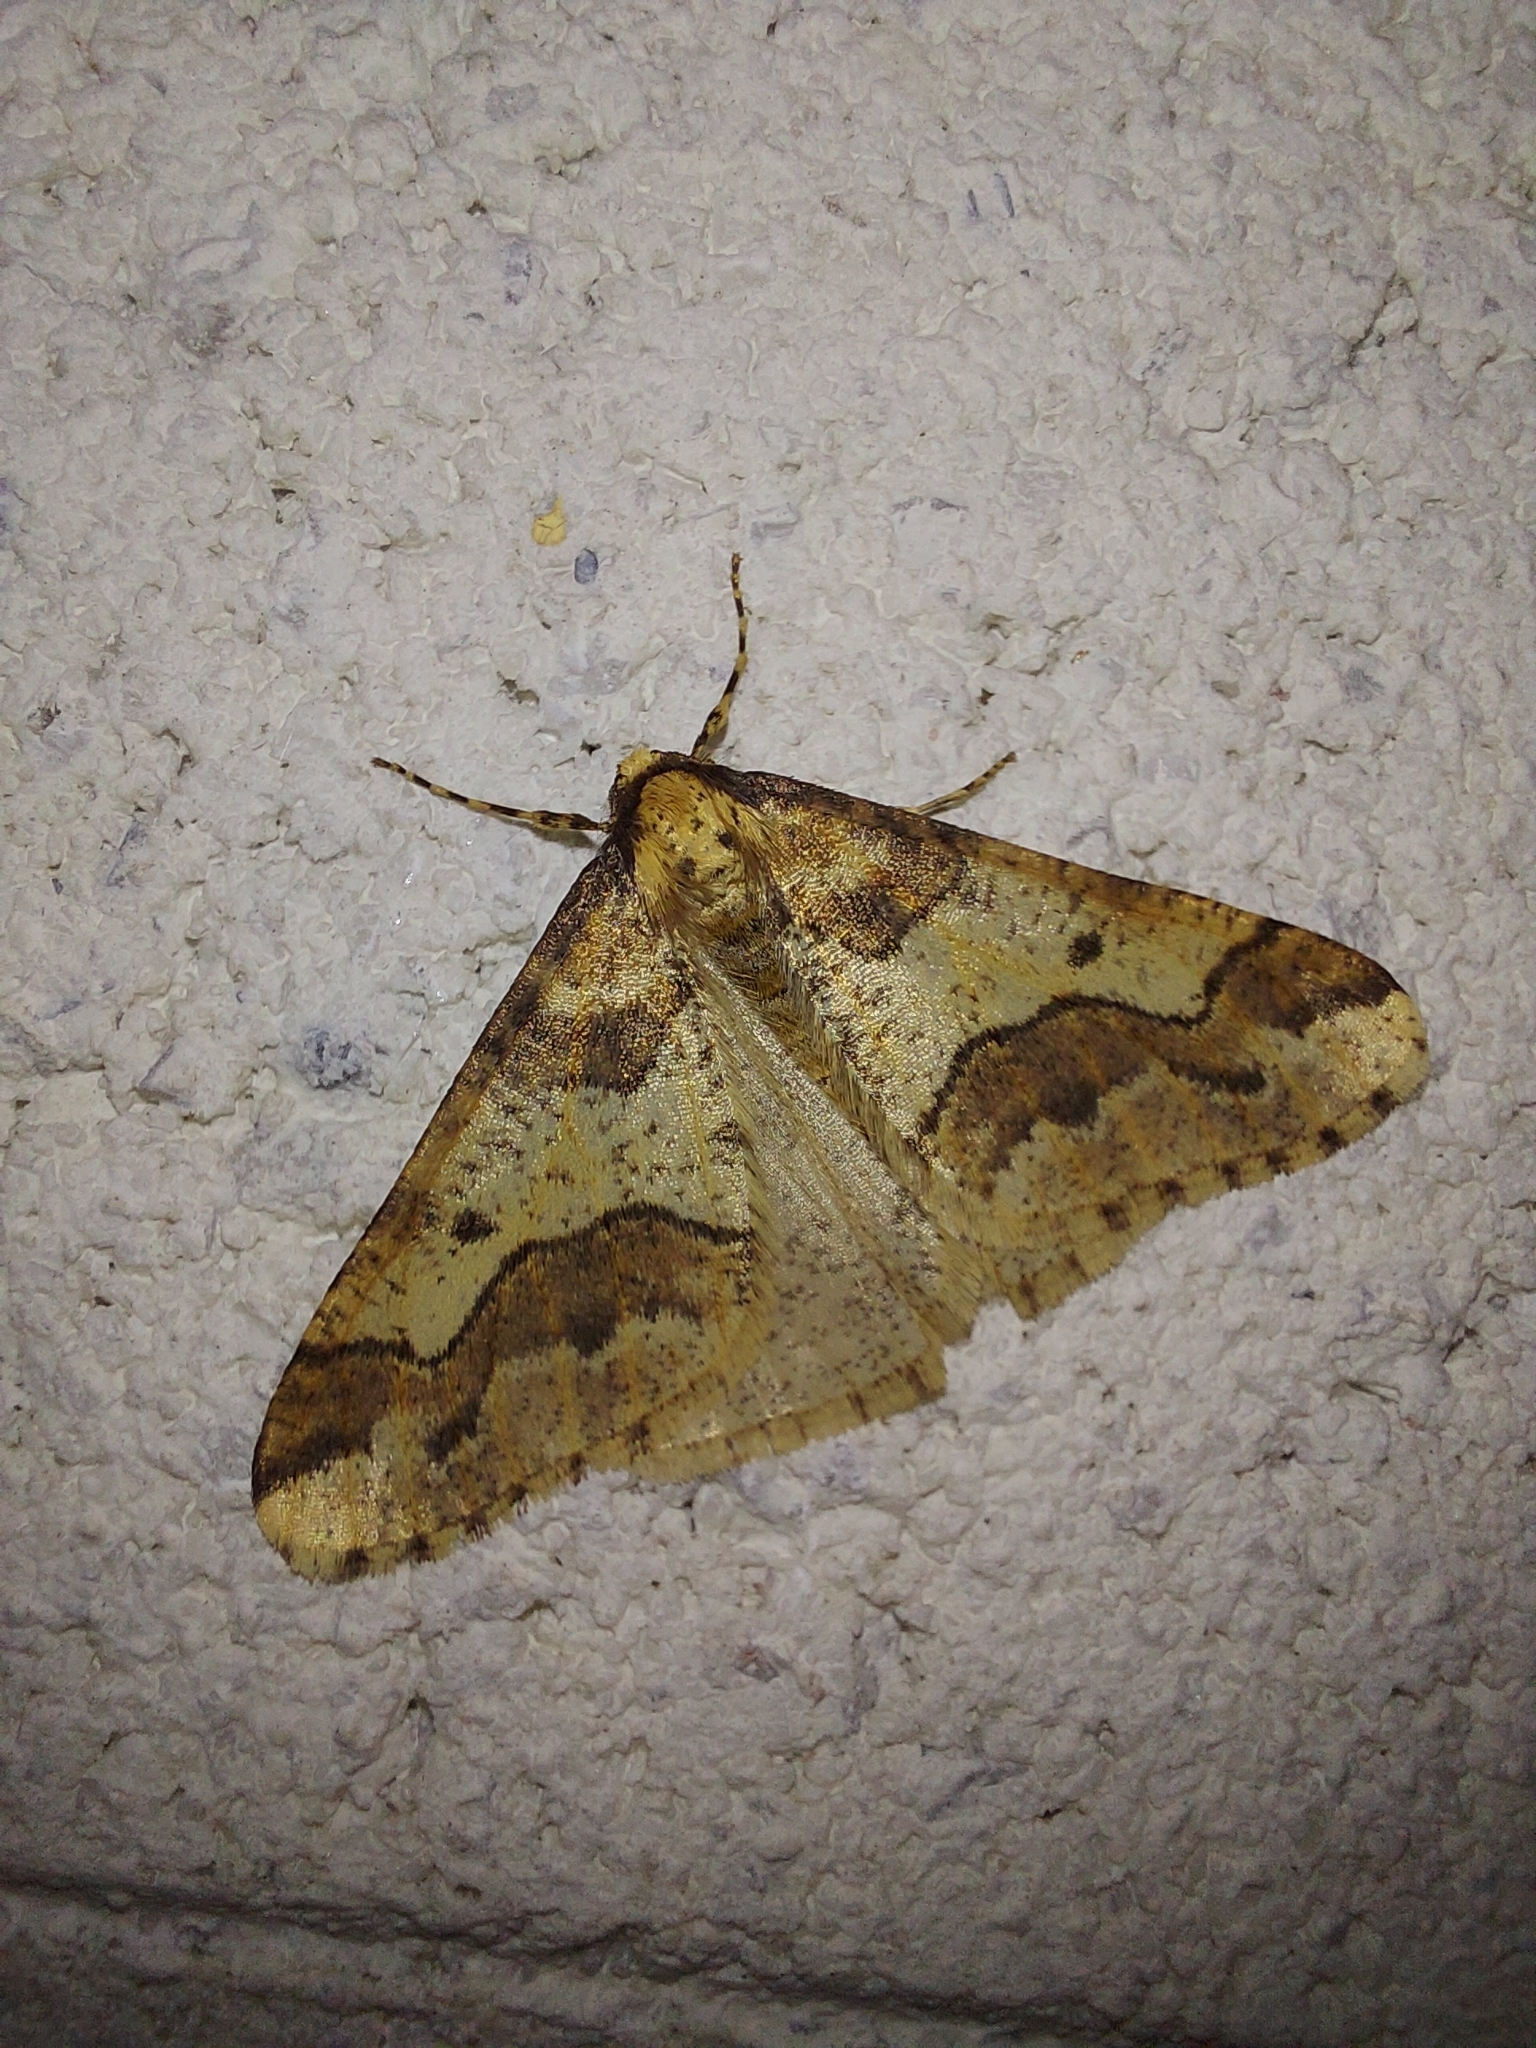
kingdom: Animalia
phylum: Arthropoda
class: Insecta
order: Lepidoptera
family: Geometridae
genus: Erannis
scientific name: Erannis defoliaria
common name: Mottled umber
